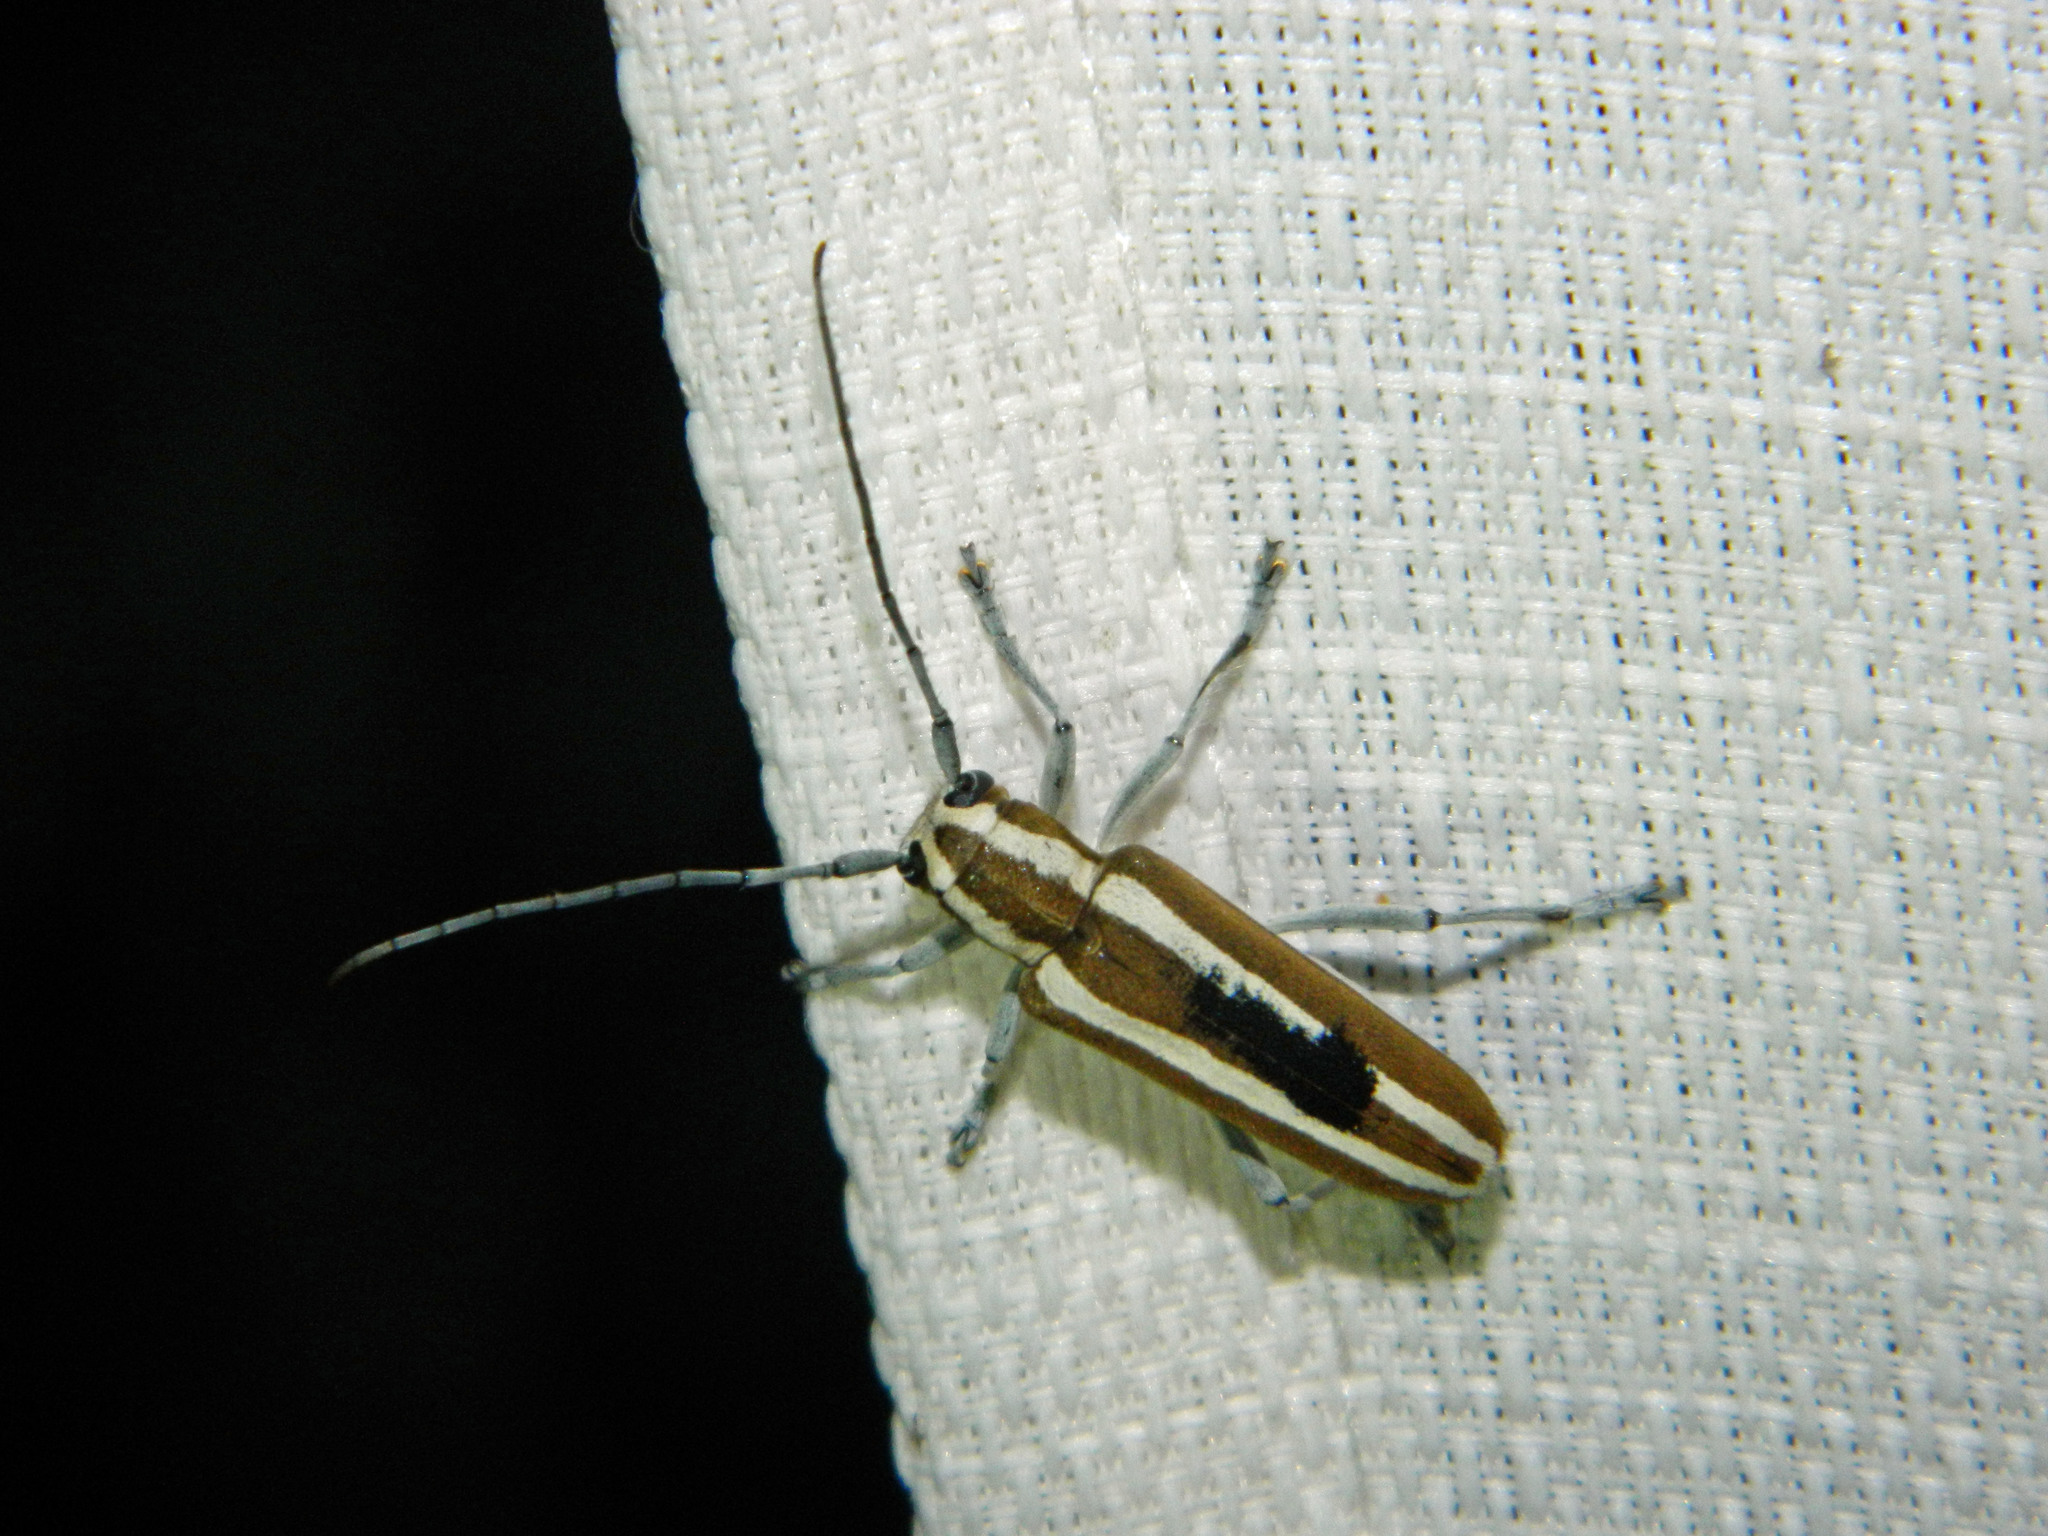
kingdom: Animalia
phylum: Arthropoda
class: Insecta
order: Coleoptera
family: Cerambycidae
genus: Saperda
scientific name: Saperda candida
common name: Round-headed borer
